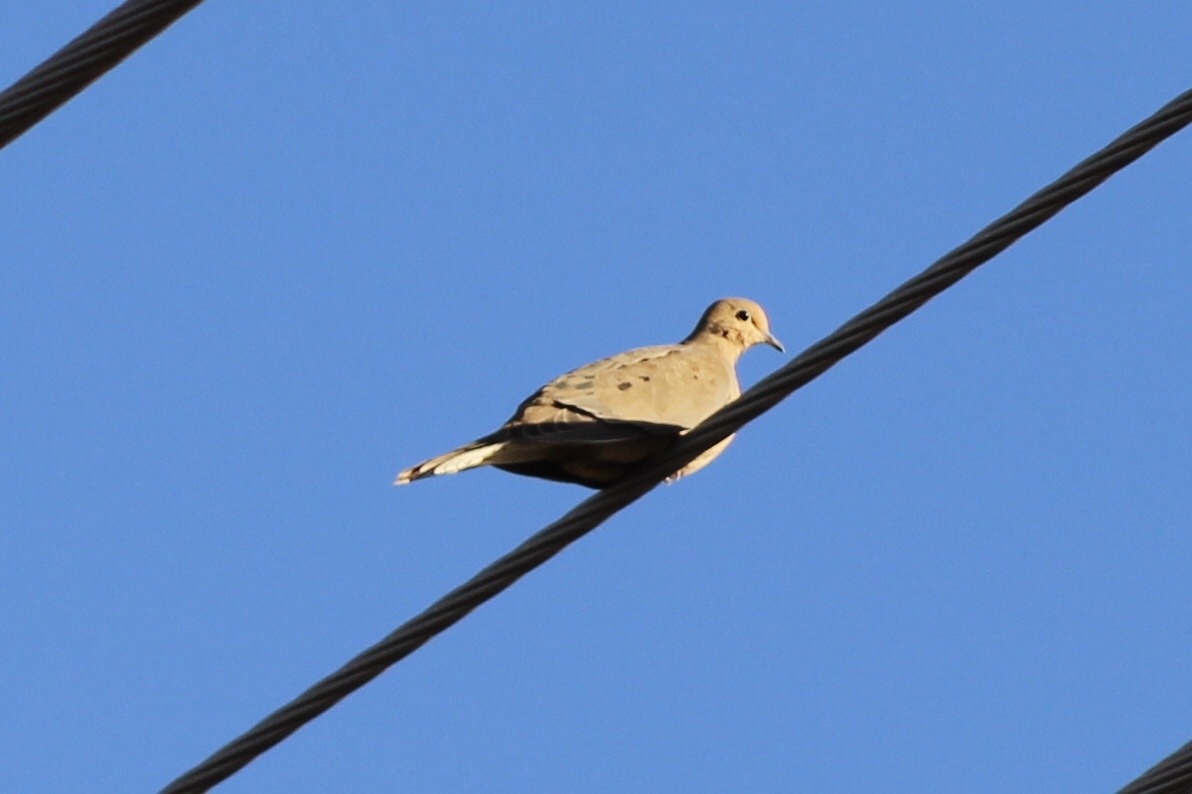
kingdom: Animalia
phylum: Chordata
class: Aves
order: Columbiformes
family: Columbidae
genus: Zenaida
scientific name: Zenaida macroura
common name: Mourning dove
